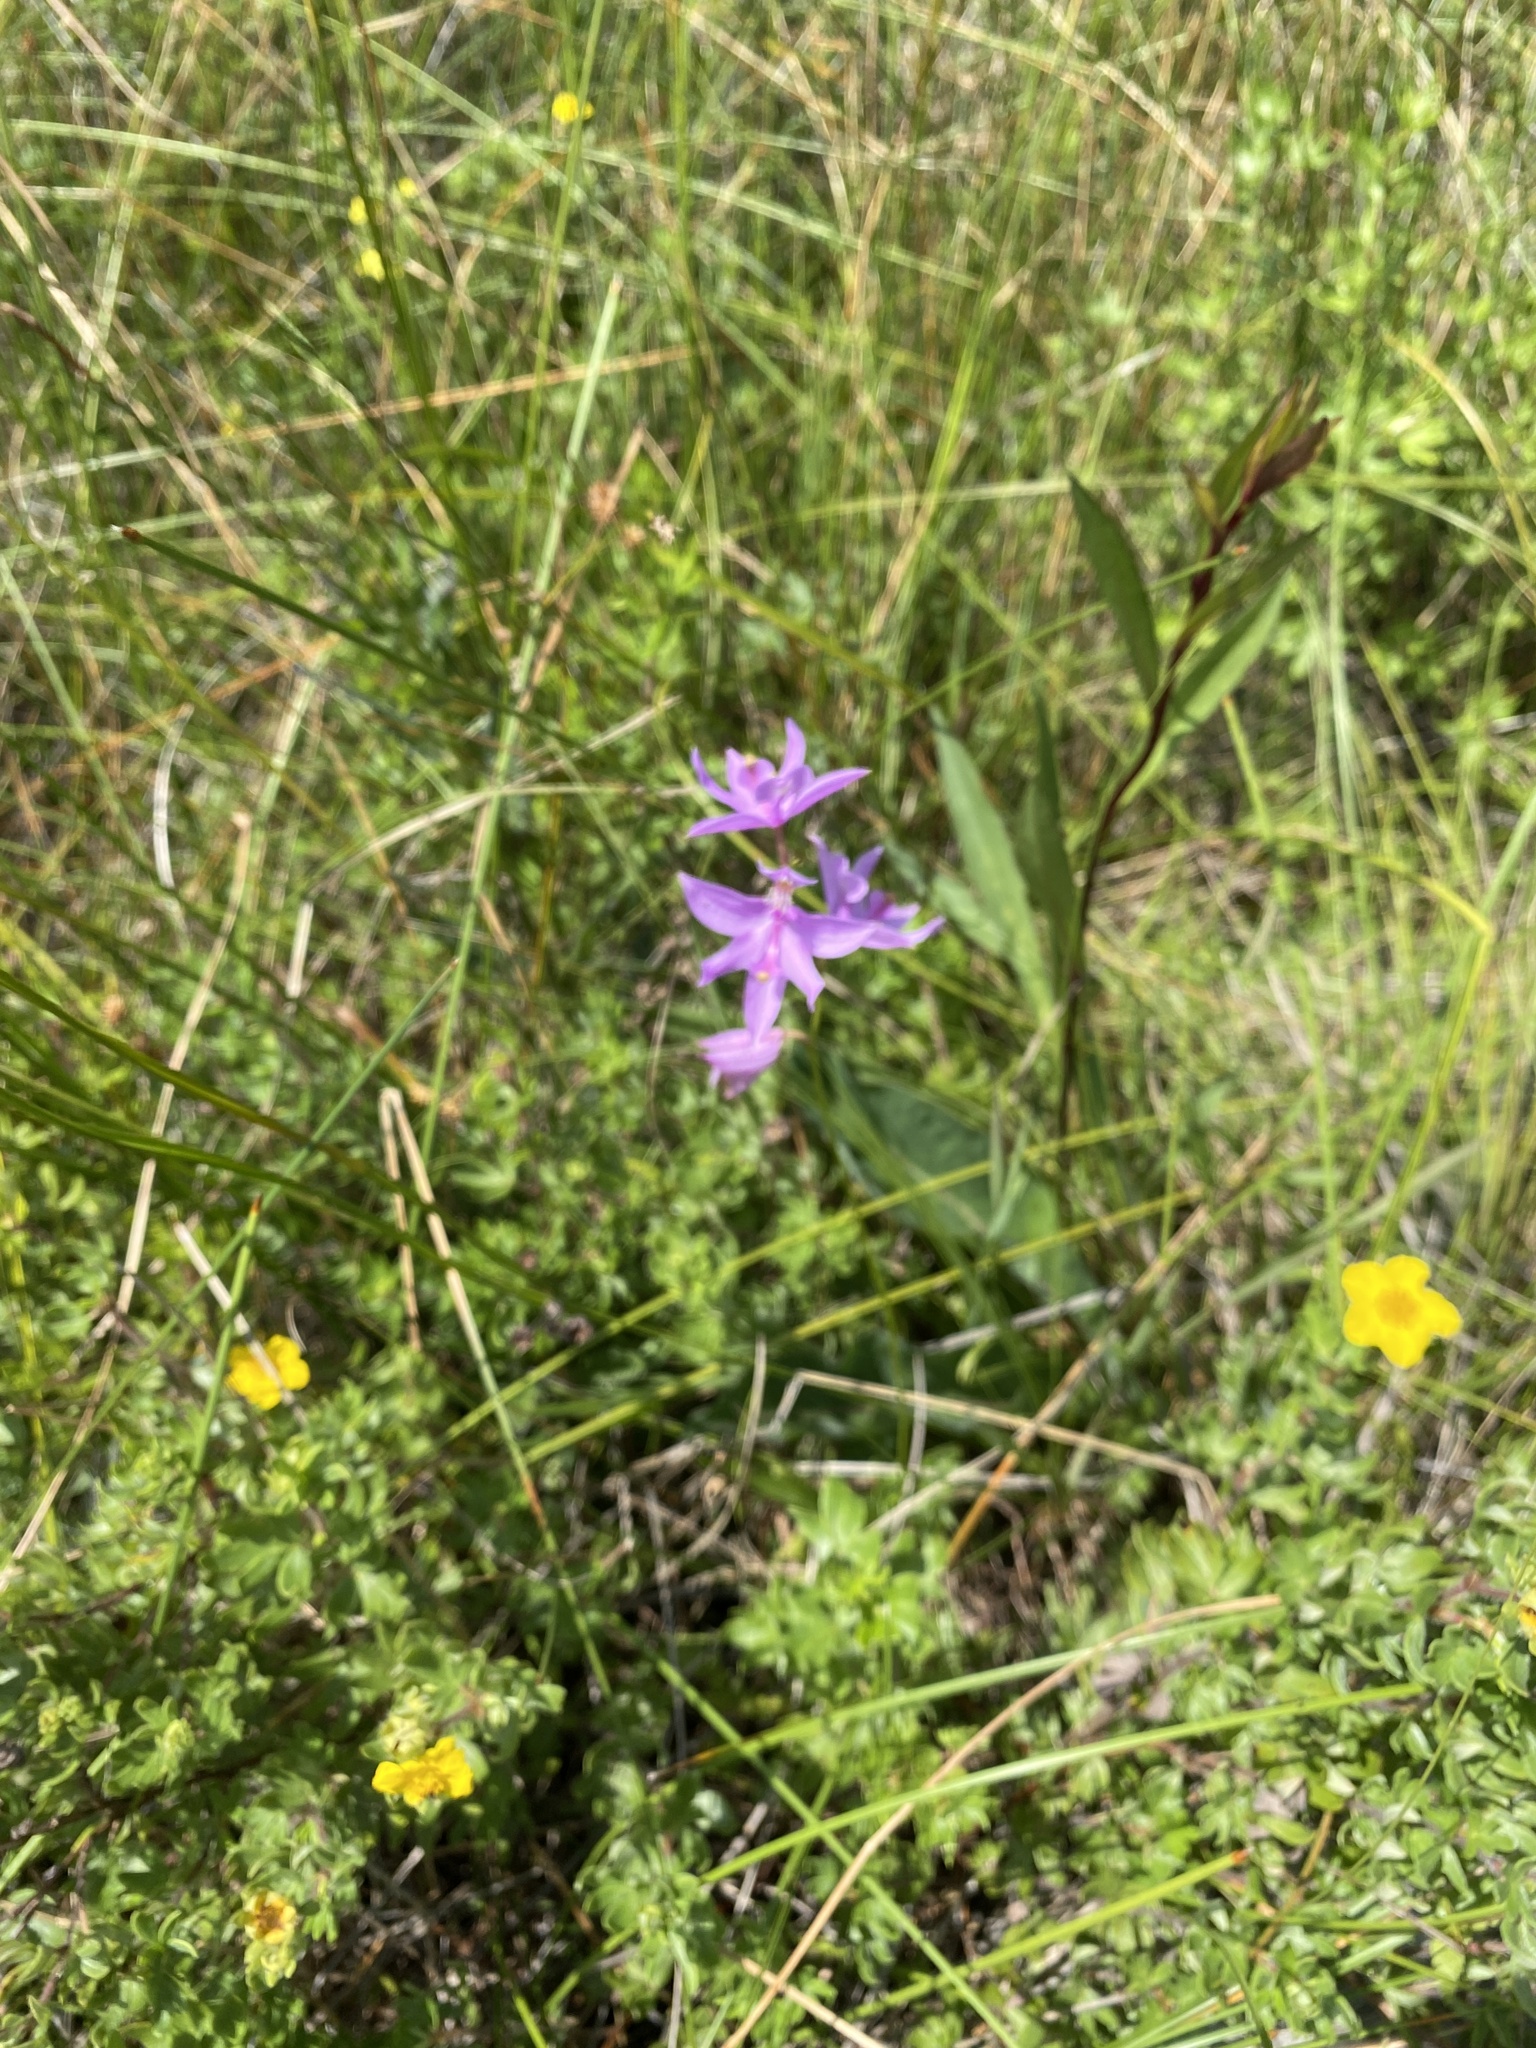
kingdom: Plantae
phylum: Tracheophyta
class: Liliopsida
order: Asparagales
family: Orchidaceae
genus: Calopogon
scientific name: Calopogon tuberosus
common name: Grass-pink
